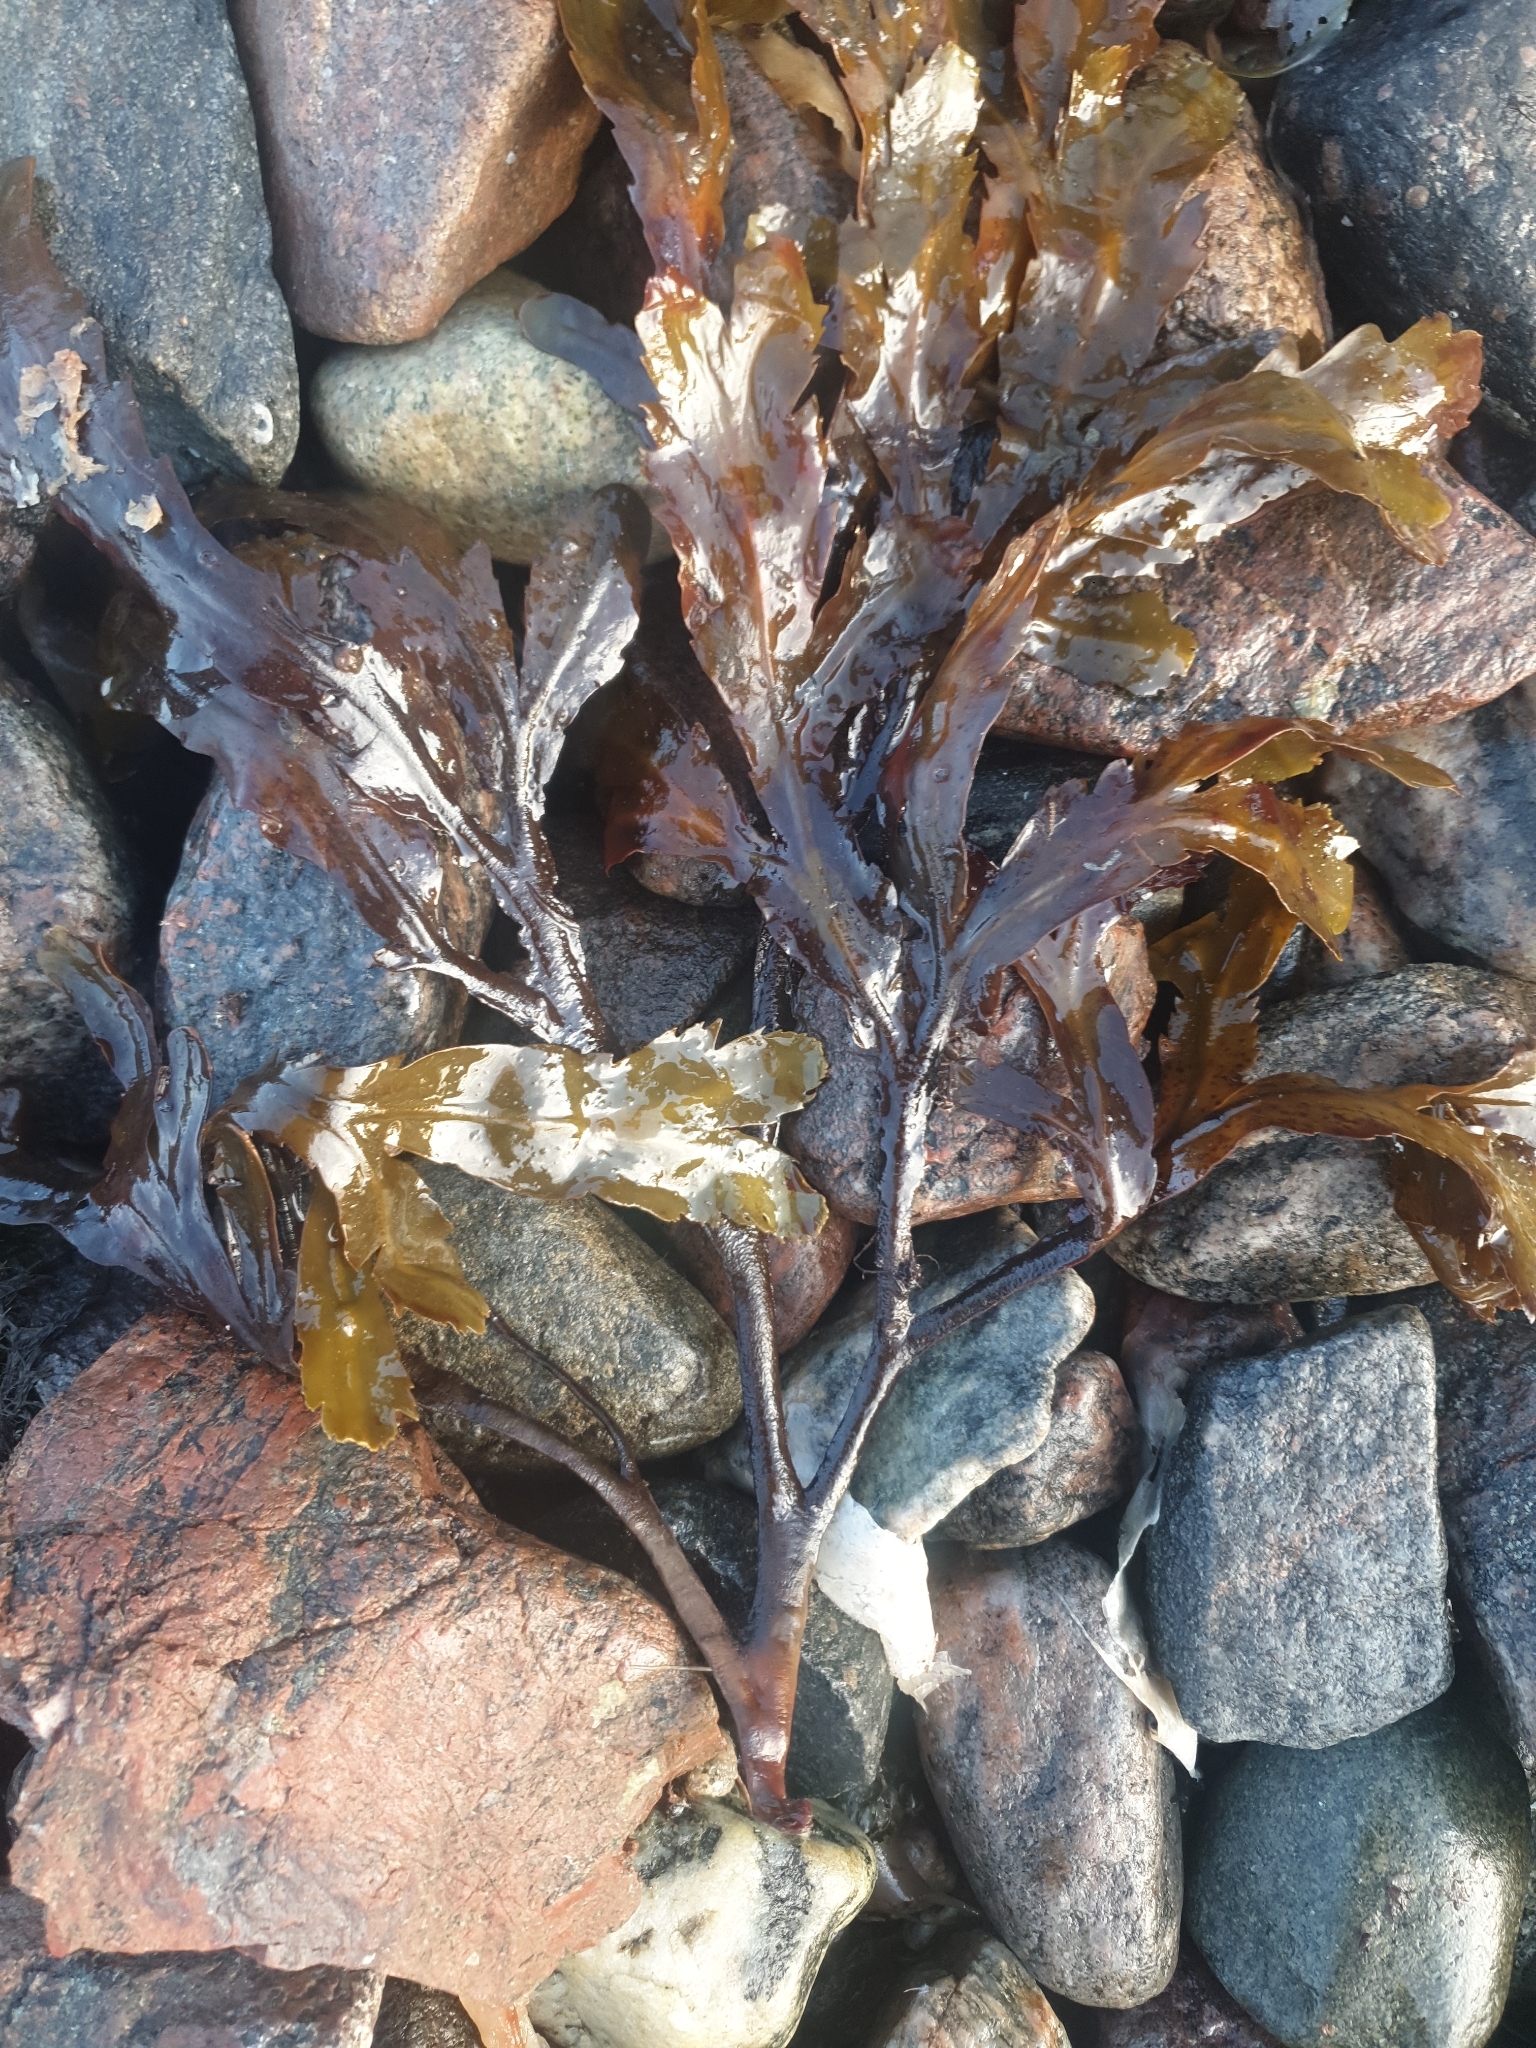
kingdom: Chromista
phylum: Ochrophyta
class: Phaeophyceae
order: Fucales
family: Fucaceae
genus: Fucus
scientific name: Fucus serratus
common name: Toothed wrack
